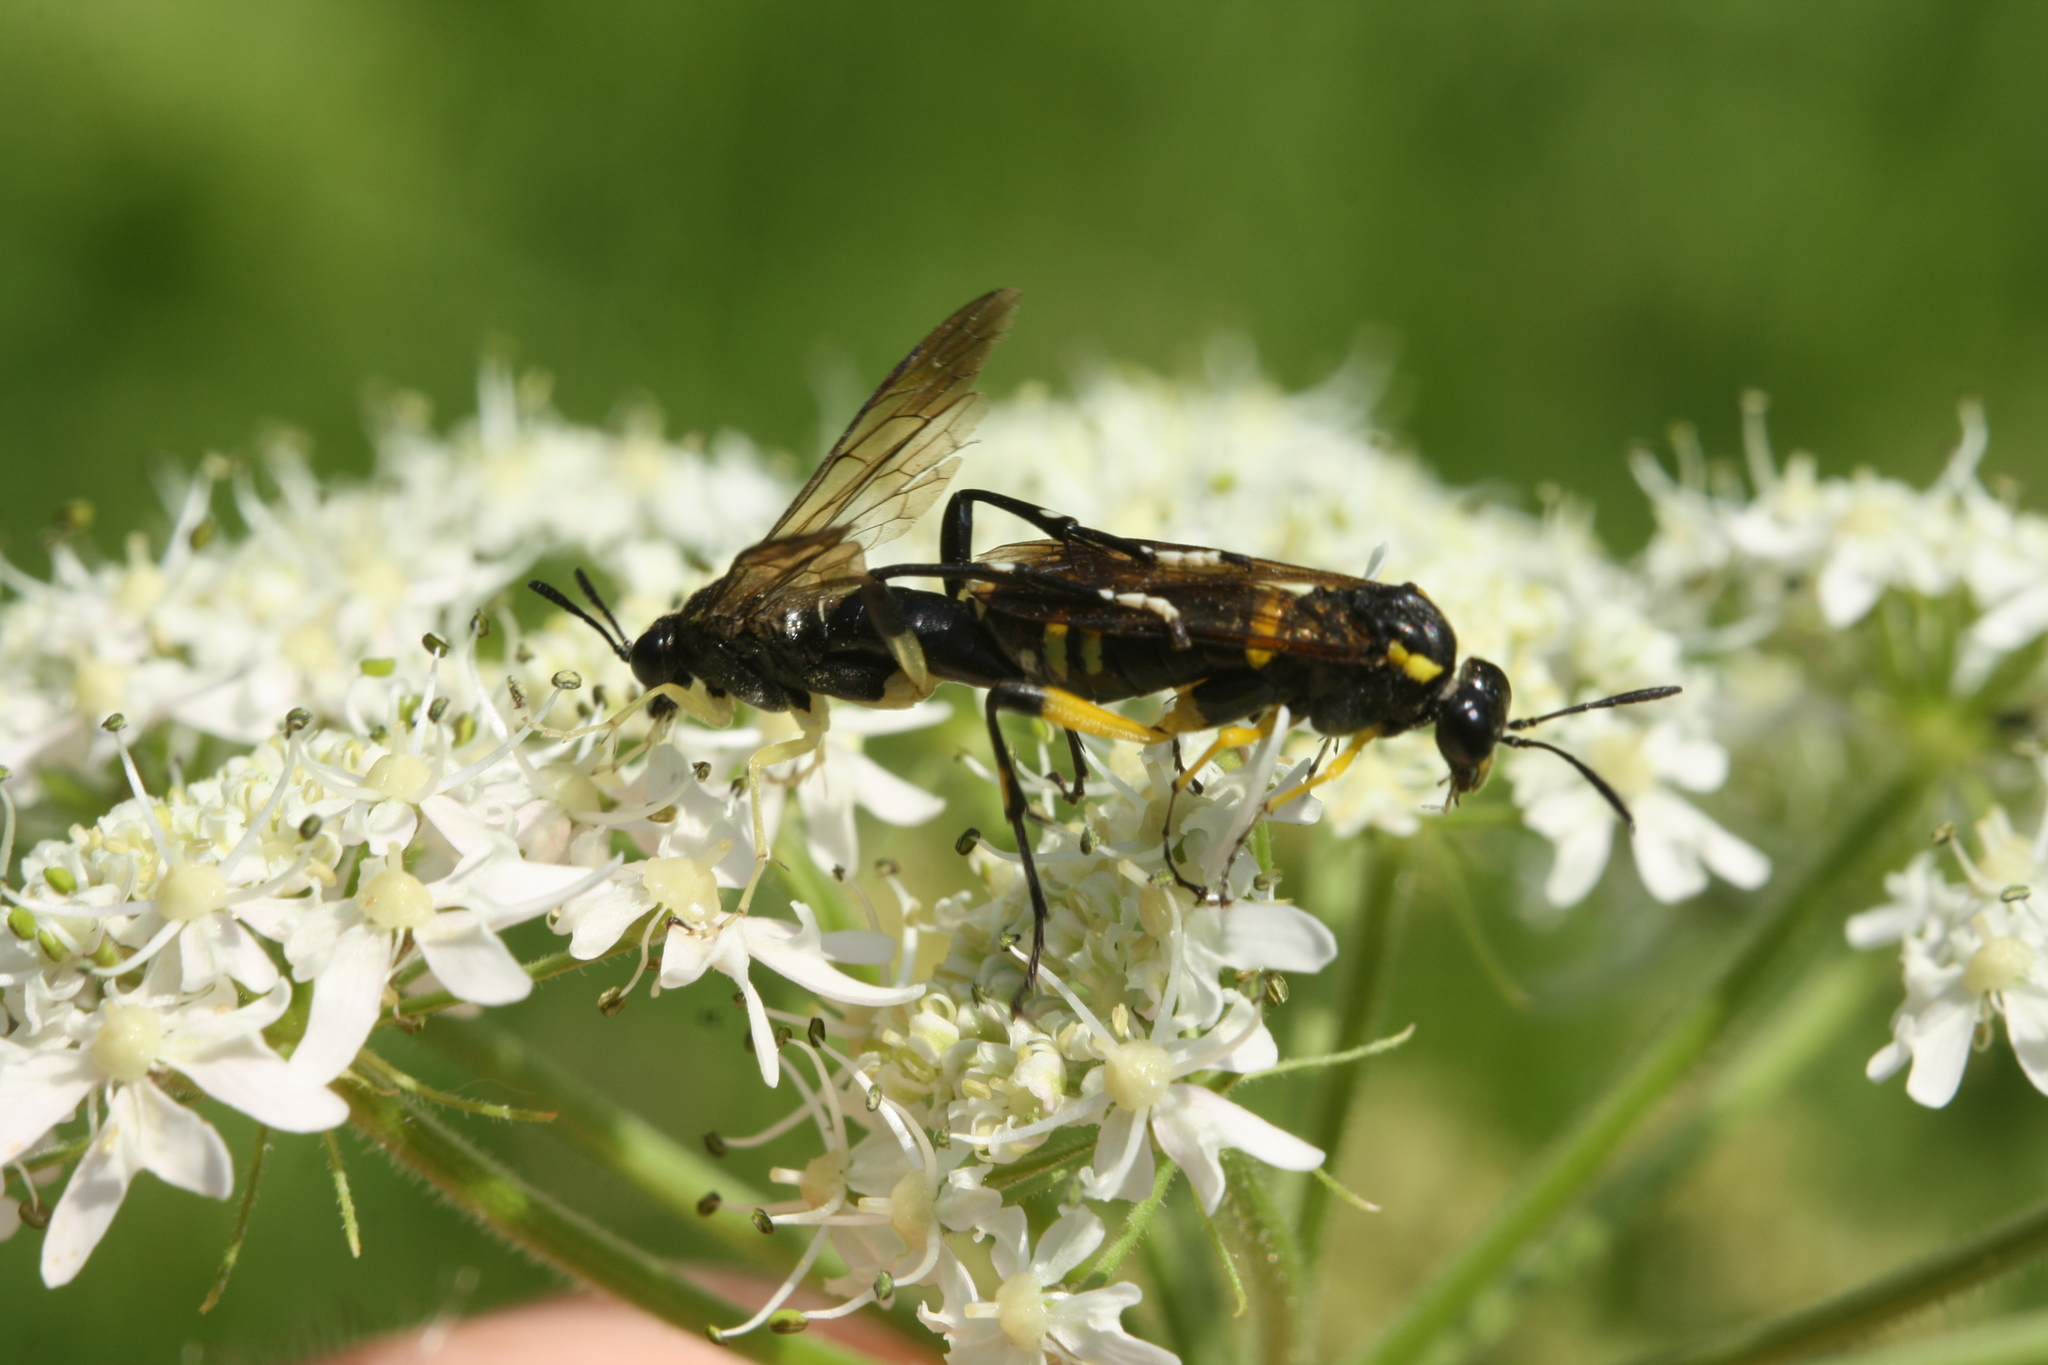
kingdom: Animalia
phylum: Arthropoda
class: Insecta
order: Hymenoptera
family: Tenthredinidae
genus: Macrophya
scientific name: Macrophya montana
